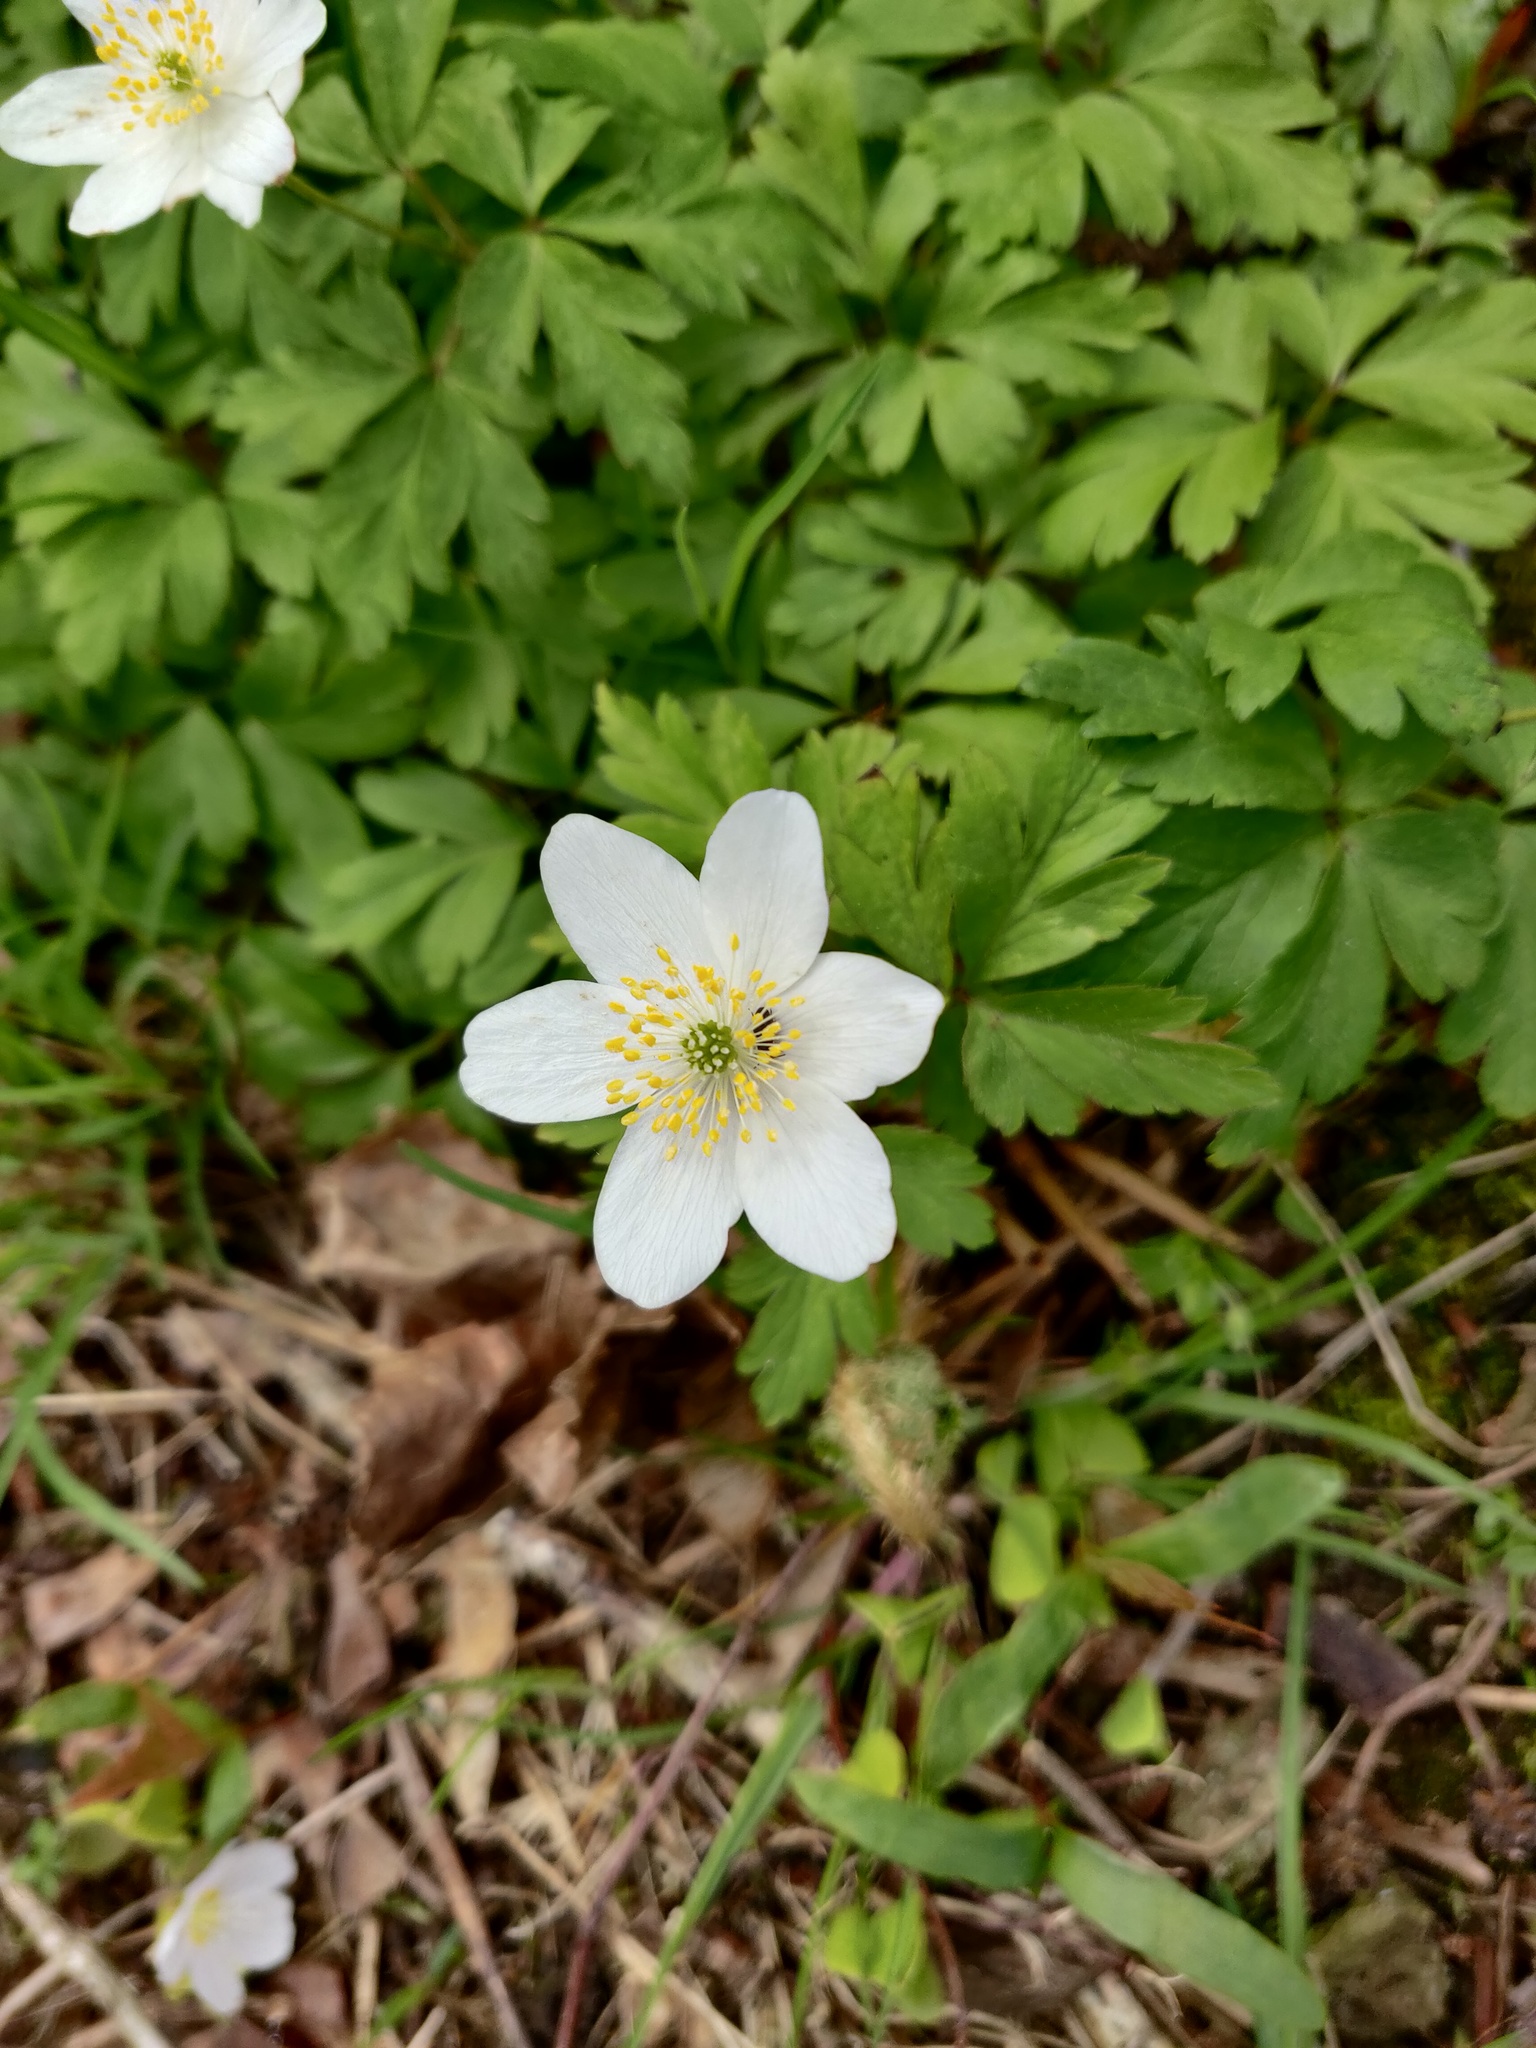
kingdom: Plantae
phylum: Tracheophyta
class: Magnoliopsida
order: Ranunculales
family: Ranunculaceae
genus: Anemone
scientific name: Anemone nemorosa
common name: Wood anemone
